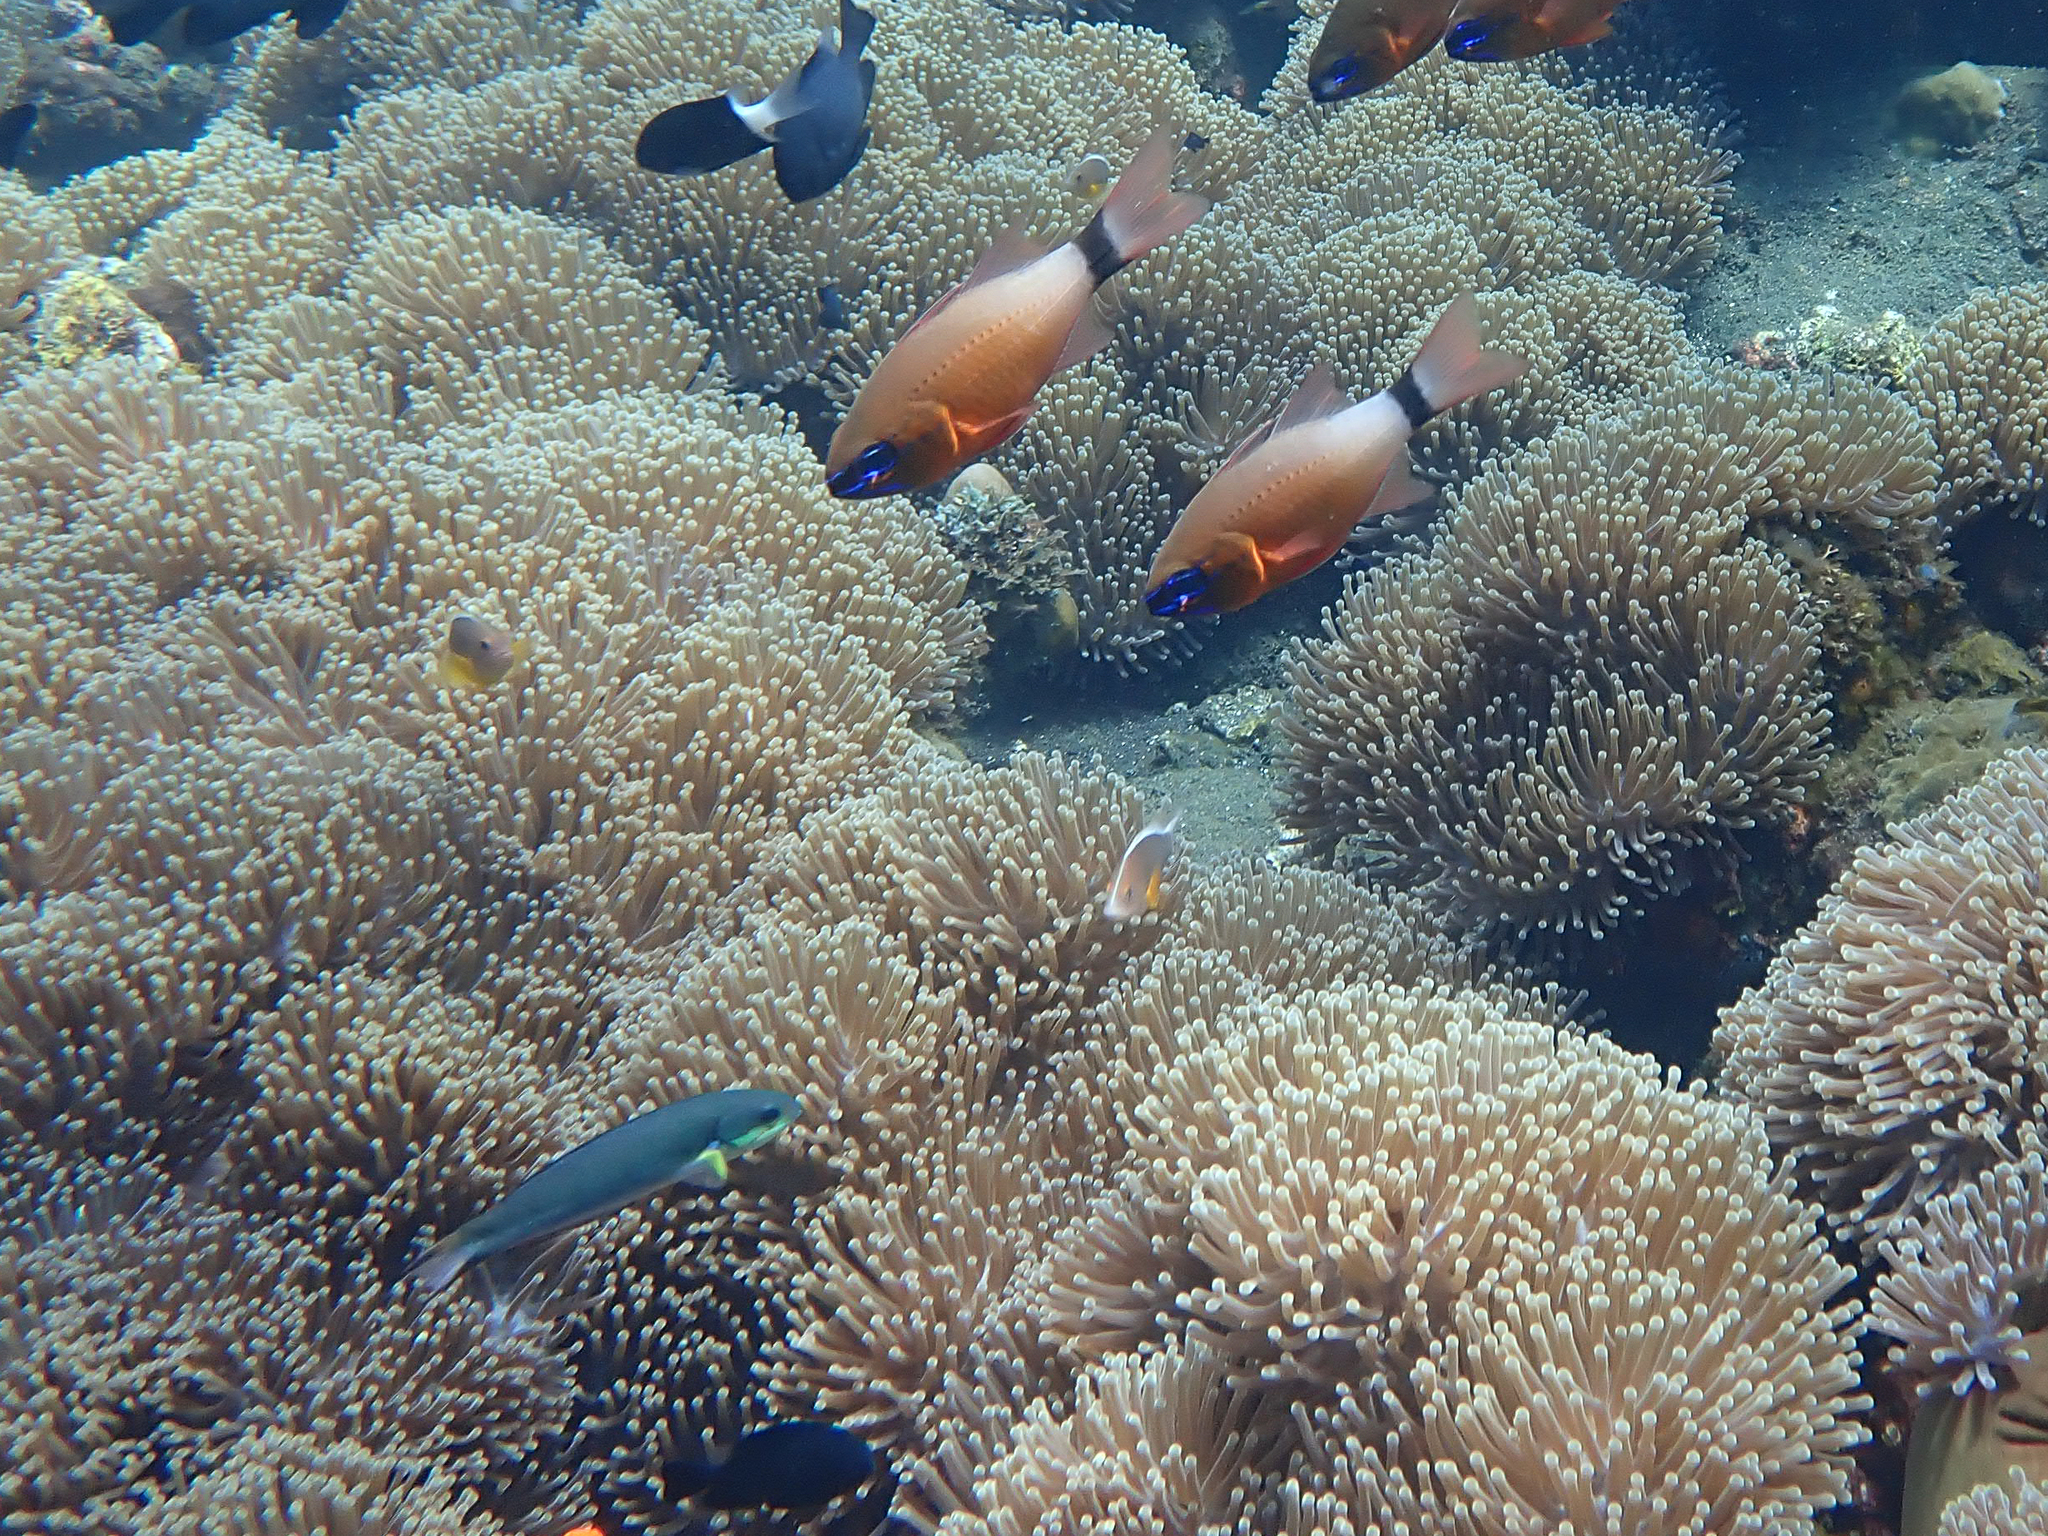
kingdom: Animalia
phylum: Chordata
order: Perciformes
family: Apogonidae
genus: Ostorhinchus
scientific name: Ostorhinchus aureus
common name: Ring-tailed cardinalfish
